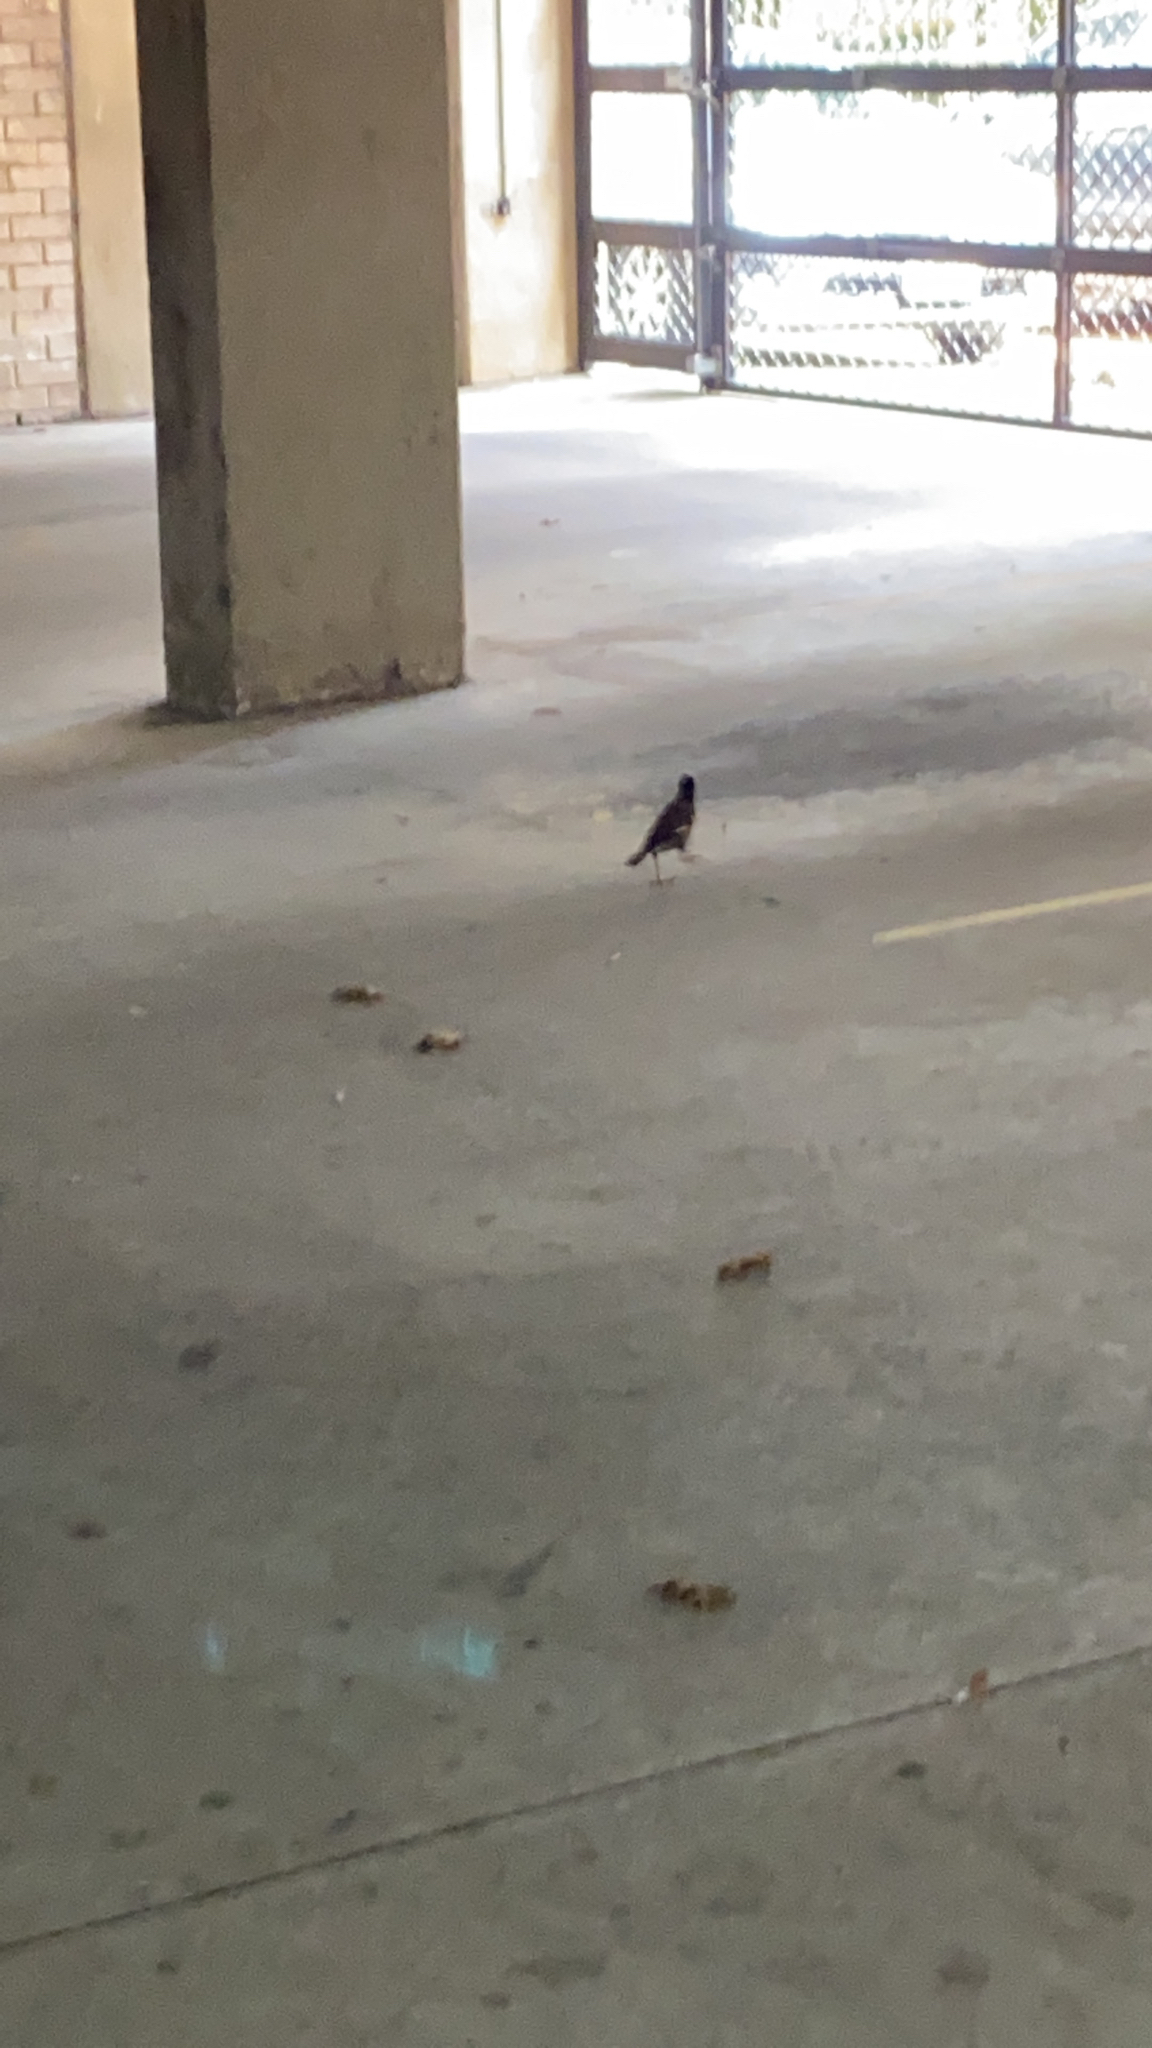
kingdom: Animalia
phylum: Chordata
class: Aves
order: Passeriformes
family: Sturnidae
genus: Acridotheres
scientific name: Acridotheres tristis
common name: Common myna
